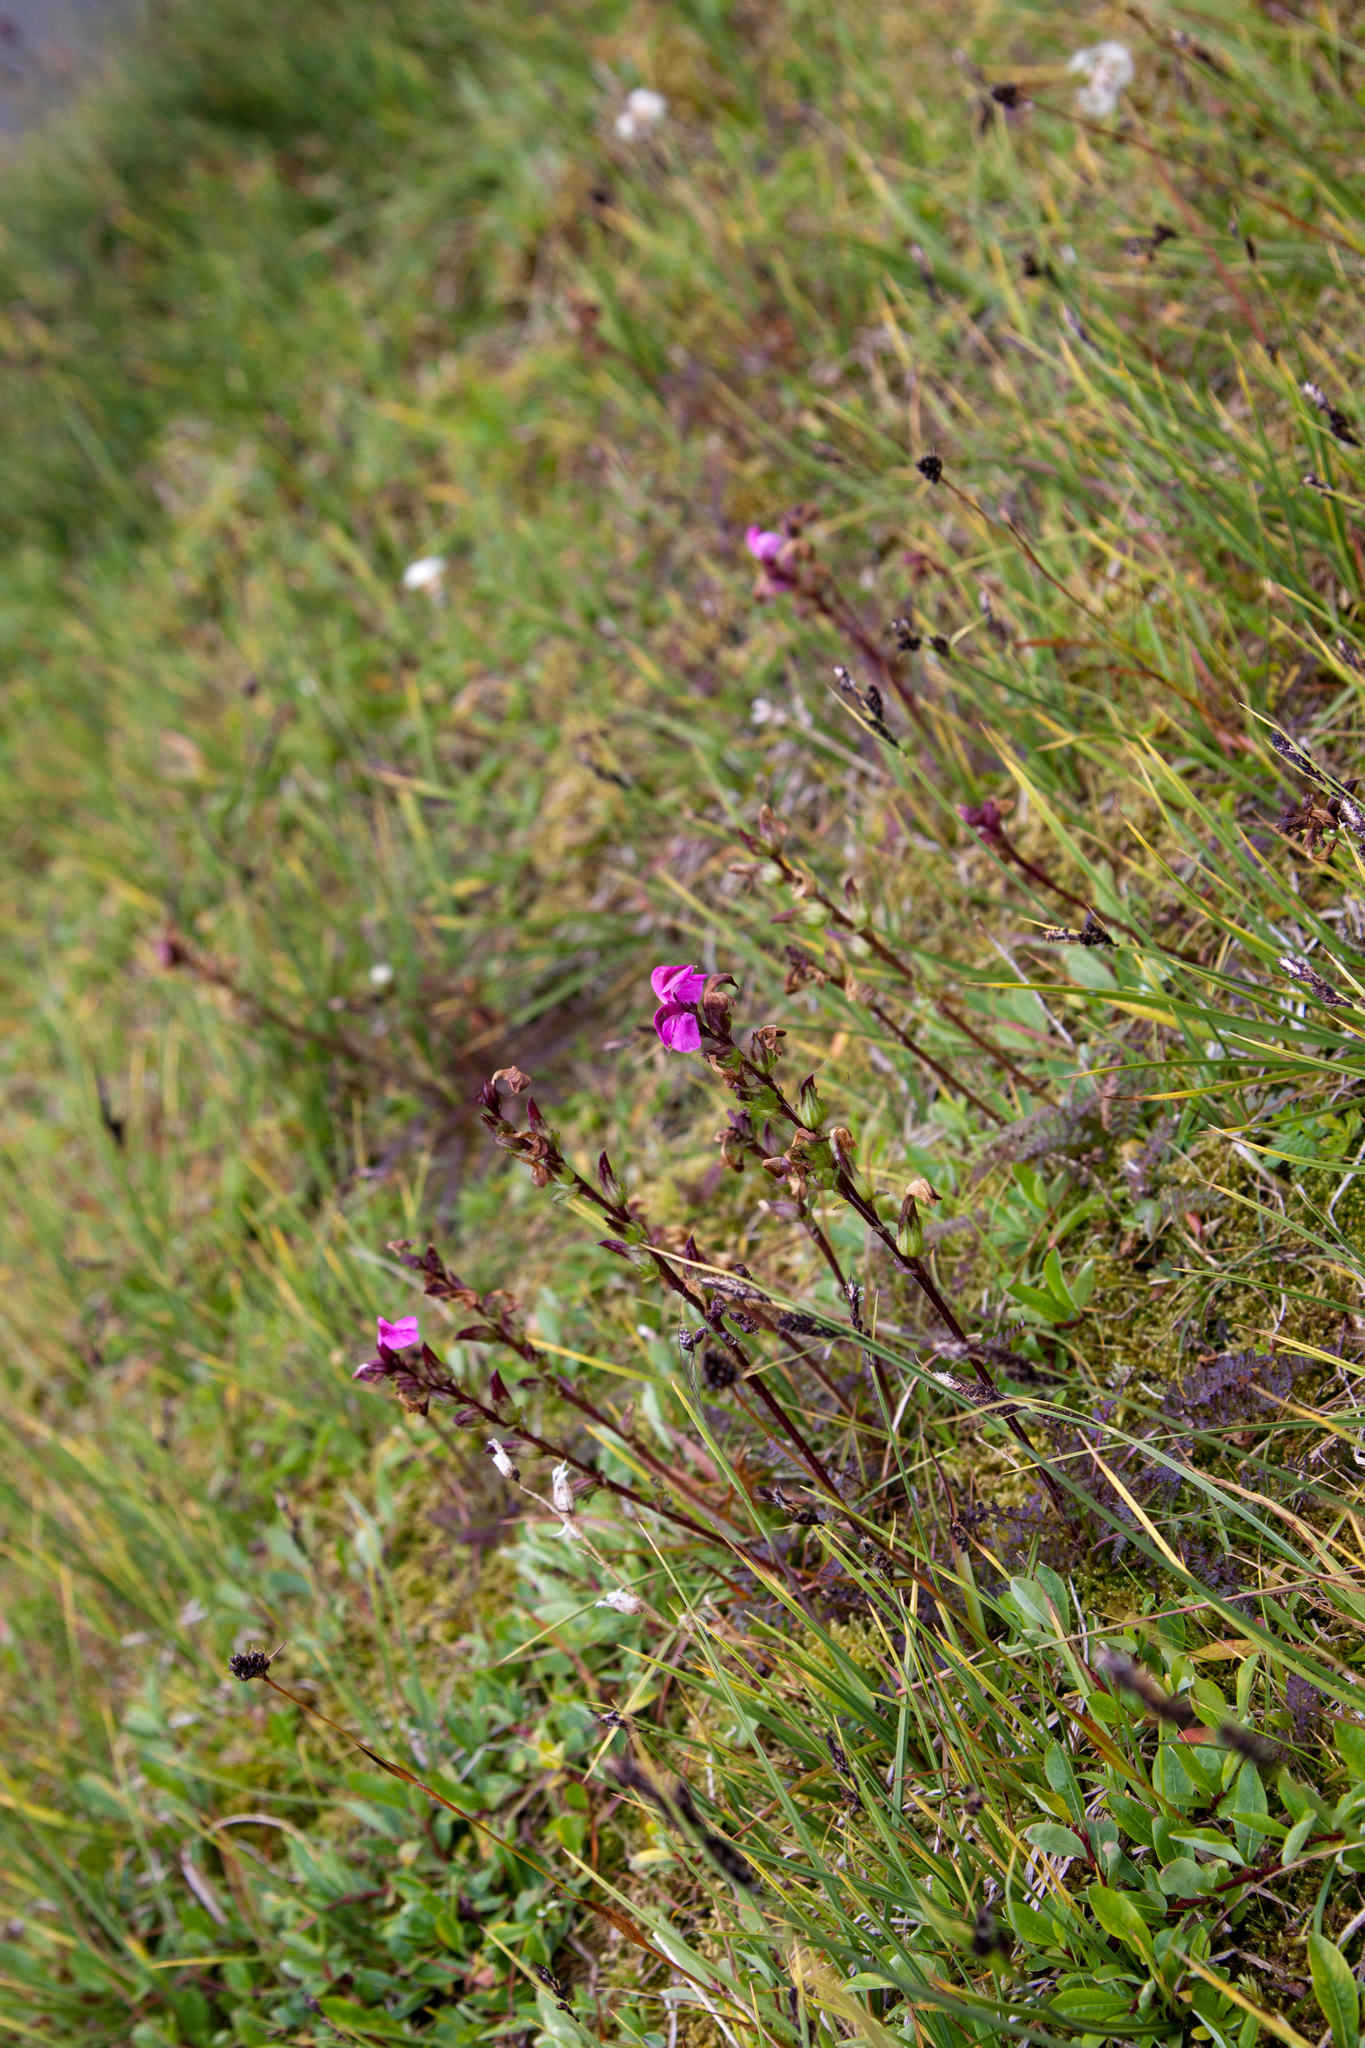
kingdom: Plantae
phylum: Tracheophyta
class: Magnoliopsida
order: Lamiales
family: Orobanchaceae
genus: Pedicularis
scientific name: Pedicularis nordmanniana
